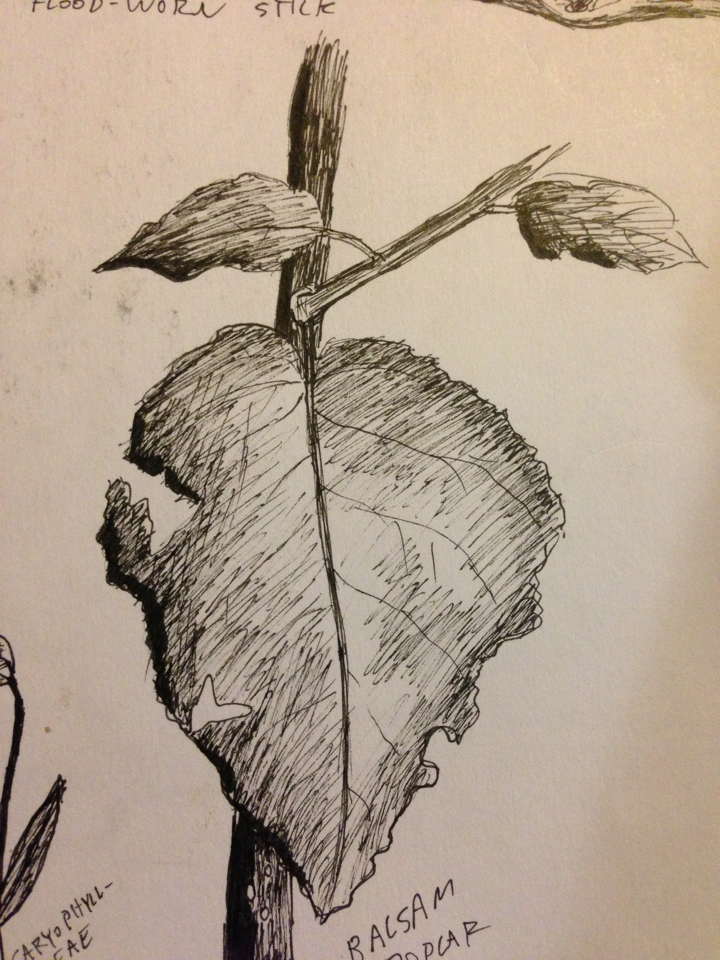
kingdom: Plantae
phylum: Tracheophyta
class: Magnoliopsida
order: Malpighiales
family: Salicaceae
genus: Populus
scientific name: Populus balsamifera
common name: Balsam poplar
